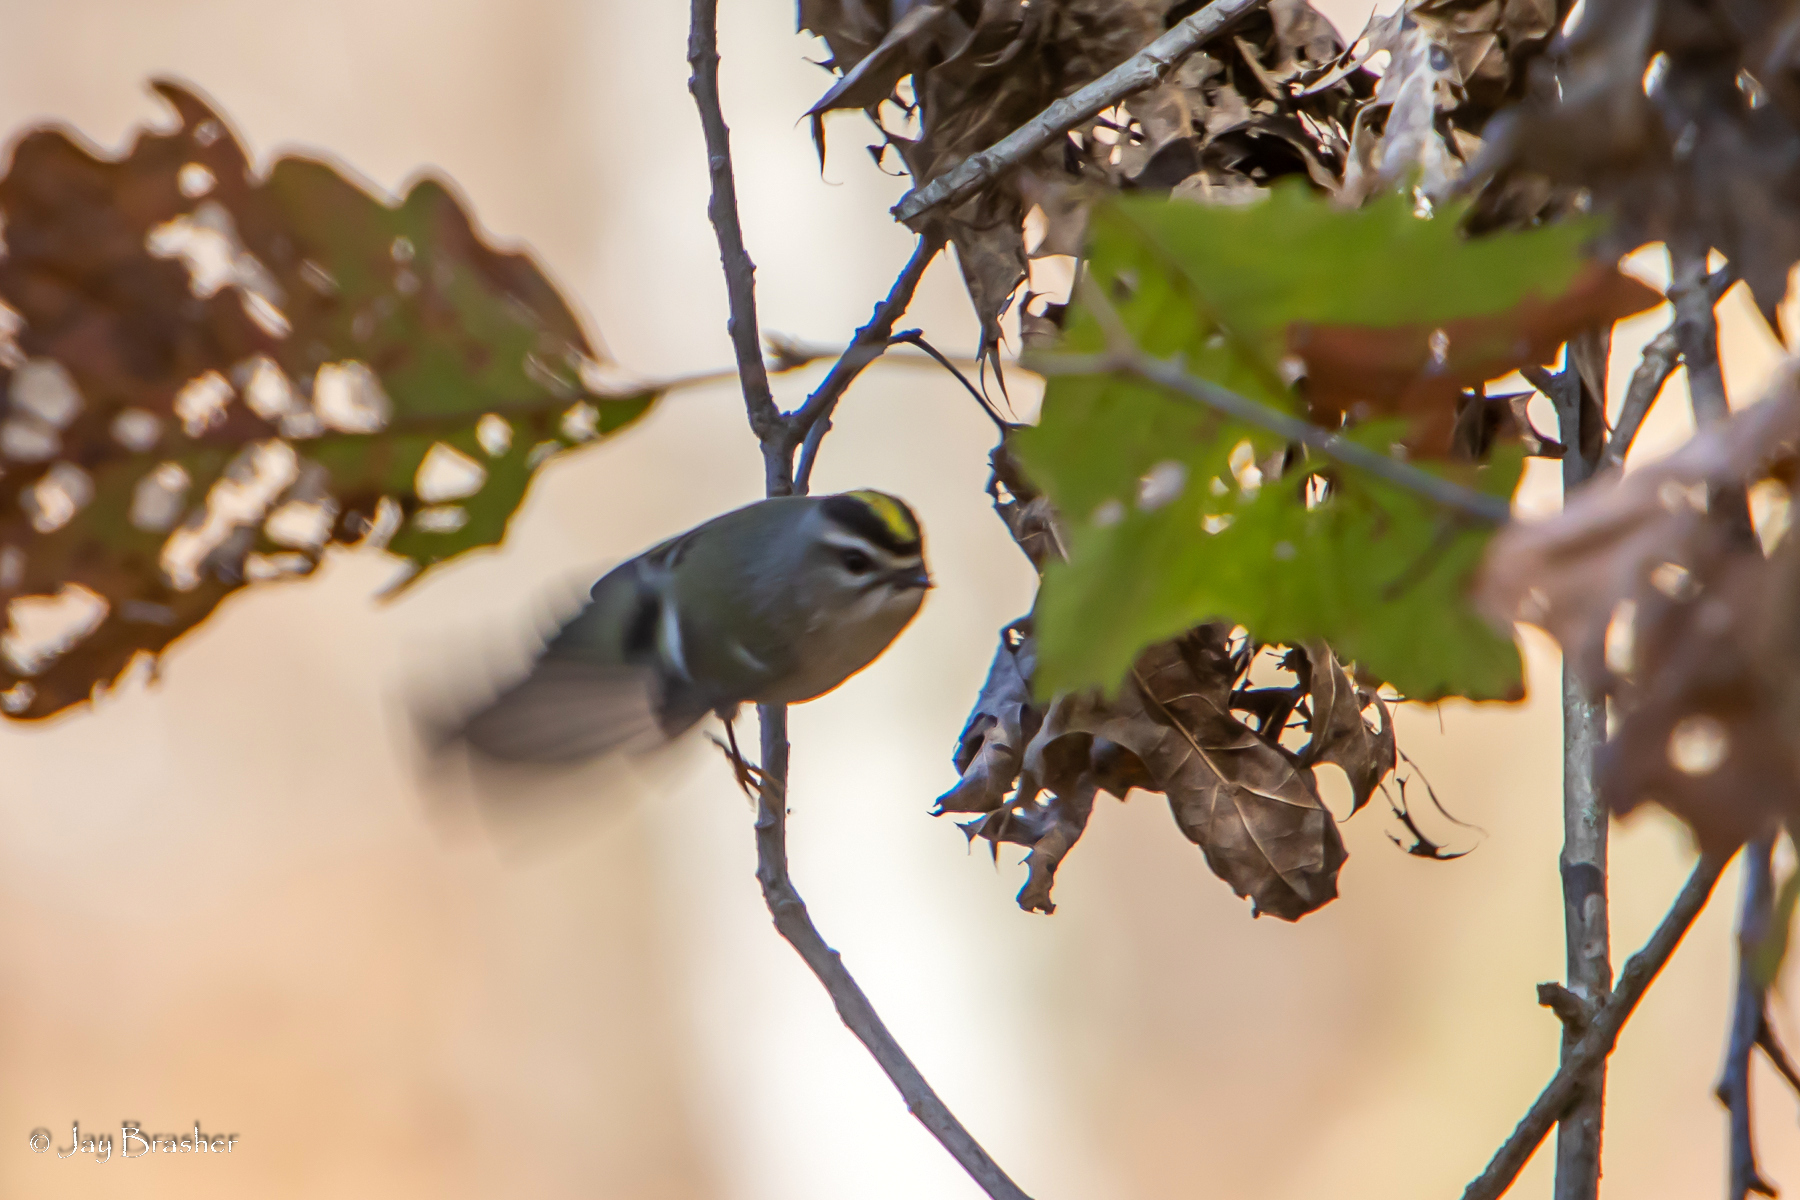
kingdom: Animalia
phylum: Chordata
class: Aves
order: Passeriformes
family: Regulidae
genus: Regulus
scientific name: Regulus satrapa
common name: Golden-crowned kinglet
